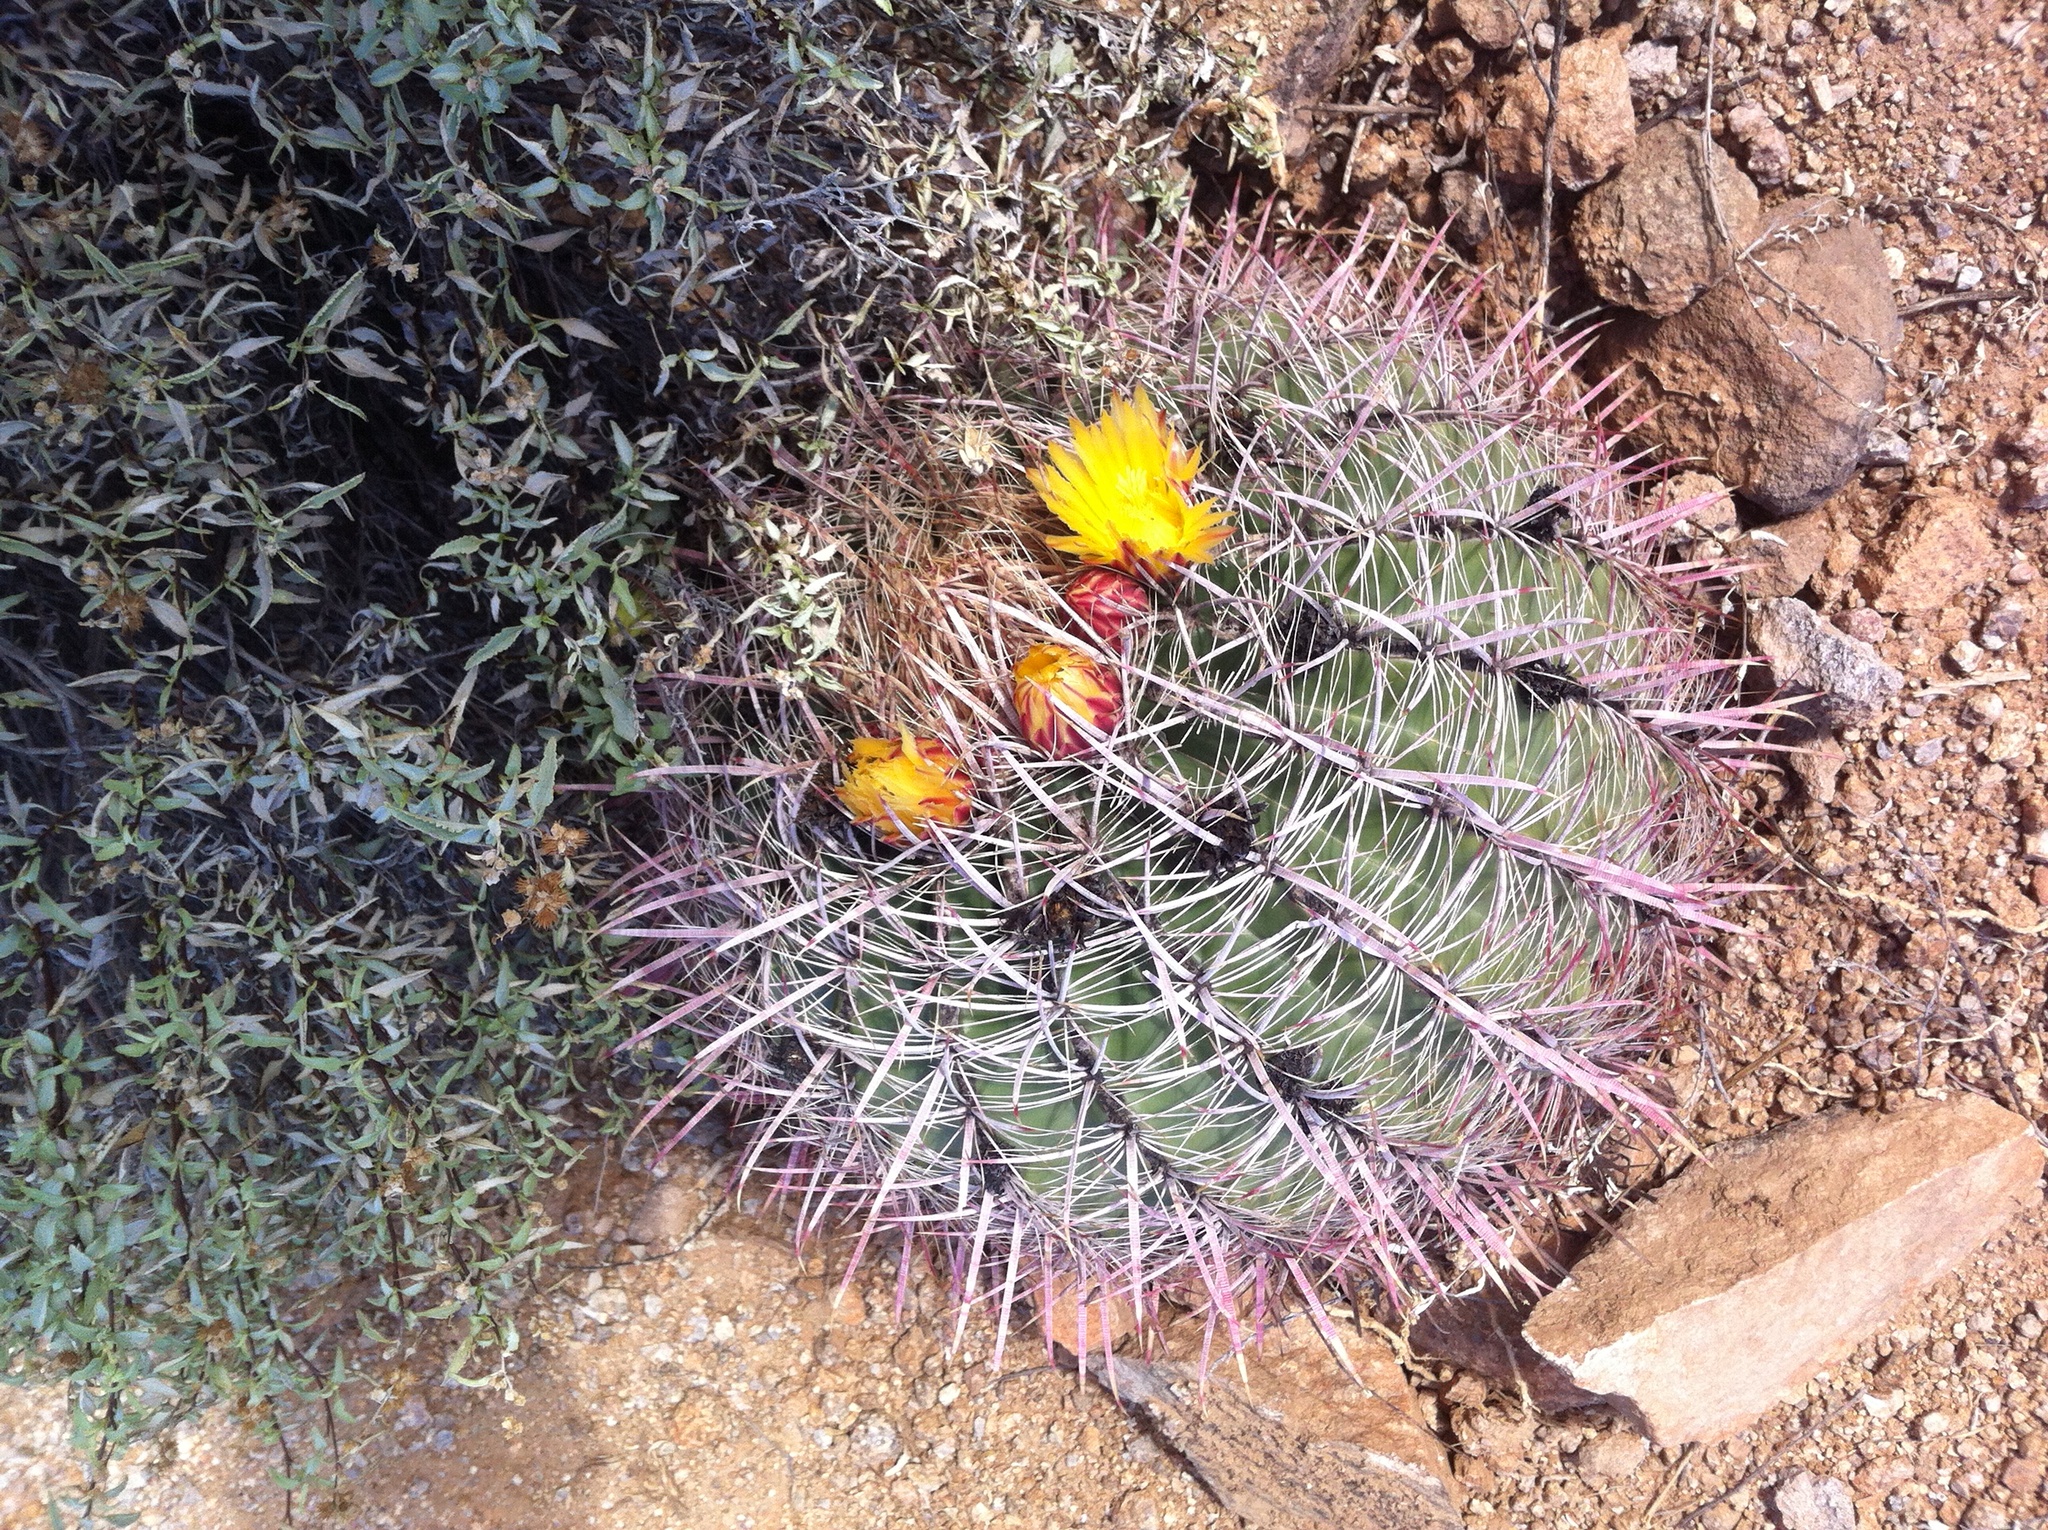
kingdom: Plantae
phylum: Tracheophyta
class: Magnoliopsida
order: Caryophyllales
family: Cactaceae
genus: Ferocactus
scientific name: Ferocactus cylindraceus
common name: California barrel cactus
